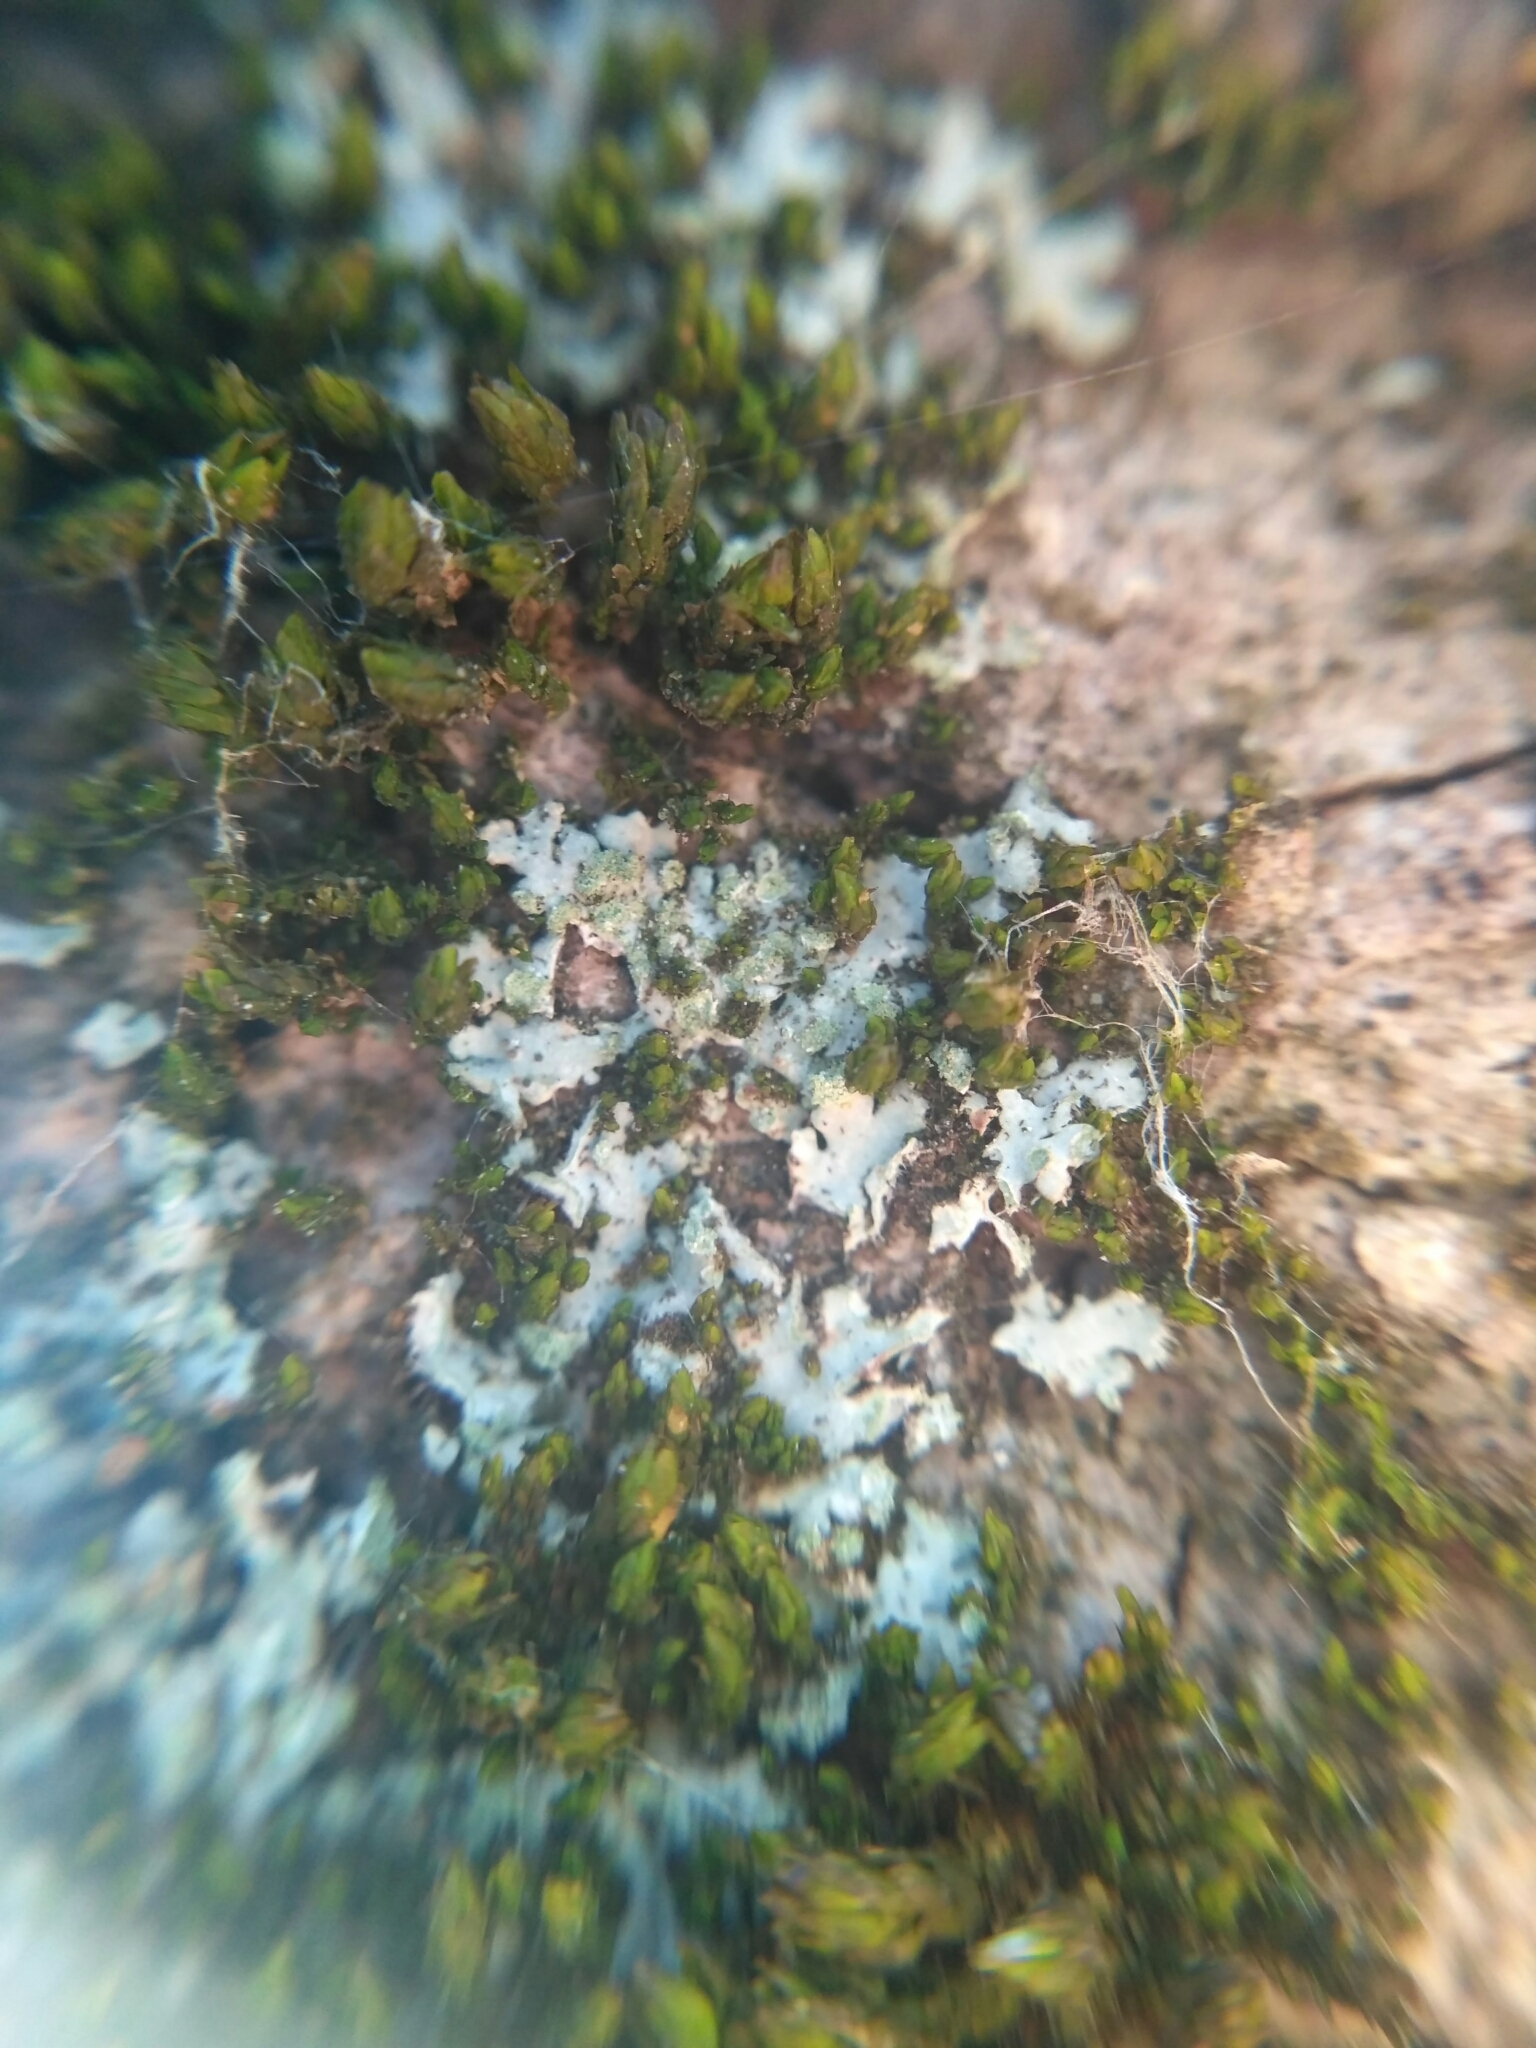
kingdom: Fungi
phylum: Ascomycota
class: Lecanoromycetes
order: Caliciales
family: Physciaceae
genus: Phaeophyscia
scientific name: Phaeophyscia orbicularis
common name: Mealy shadow lichen
